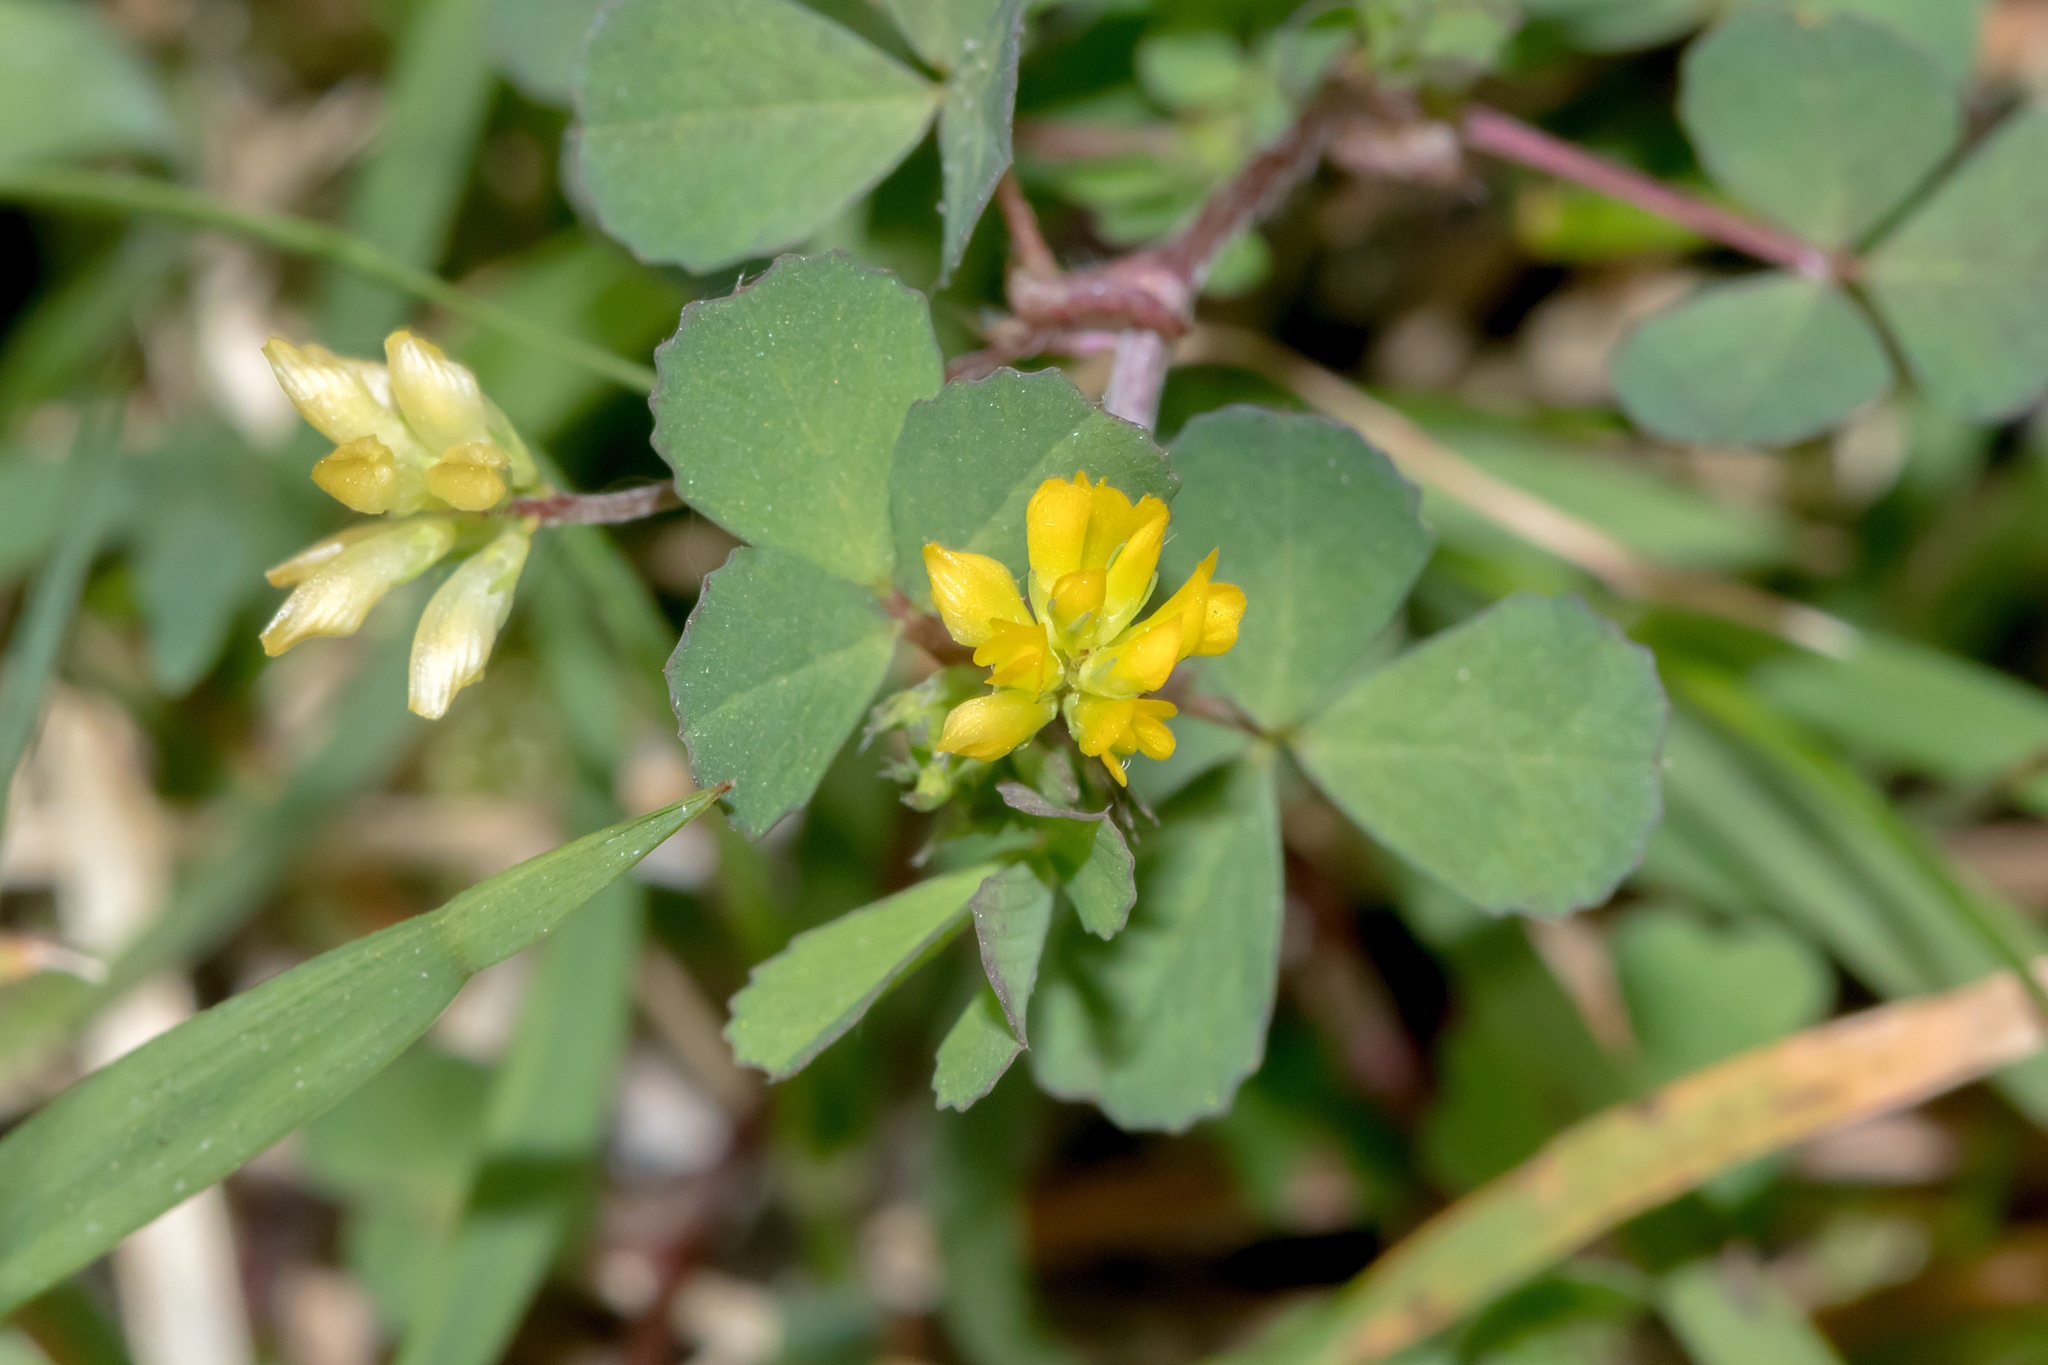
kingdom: Plantae
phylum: Tracheophyta
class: Magnoliopsida
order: Fabales
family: Fabaceae
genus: Trifolium
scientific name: Trifolium dubium
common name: Suckling clover
